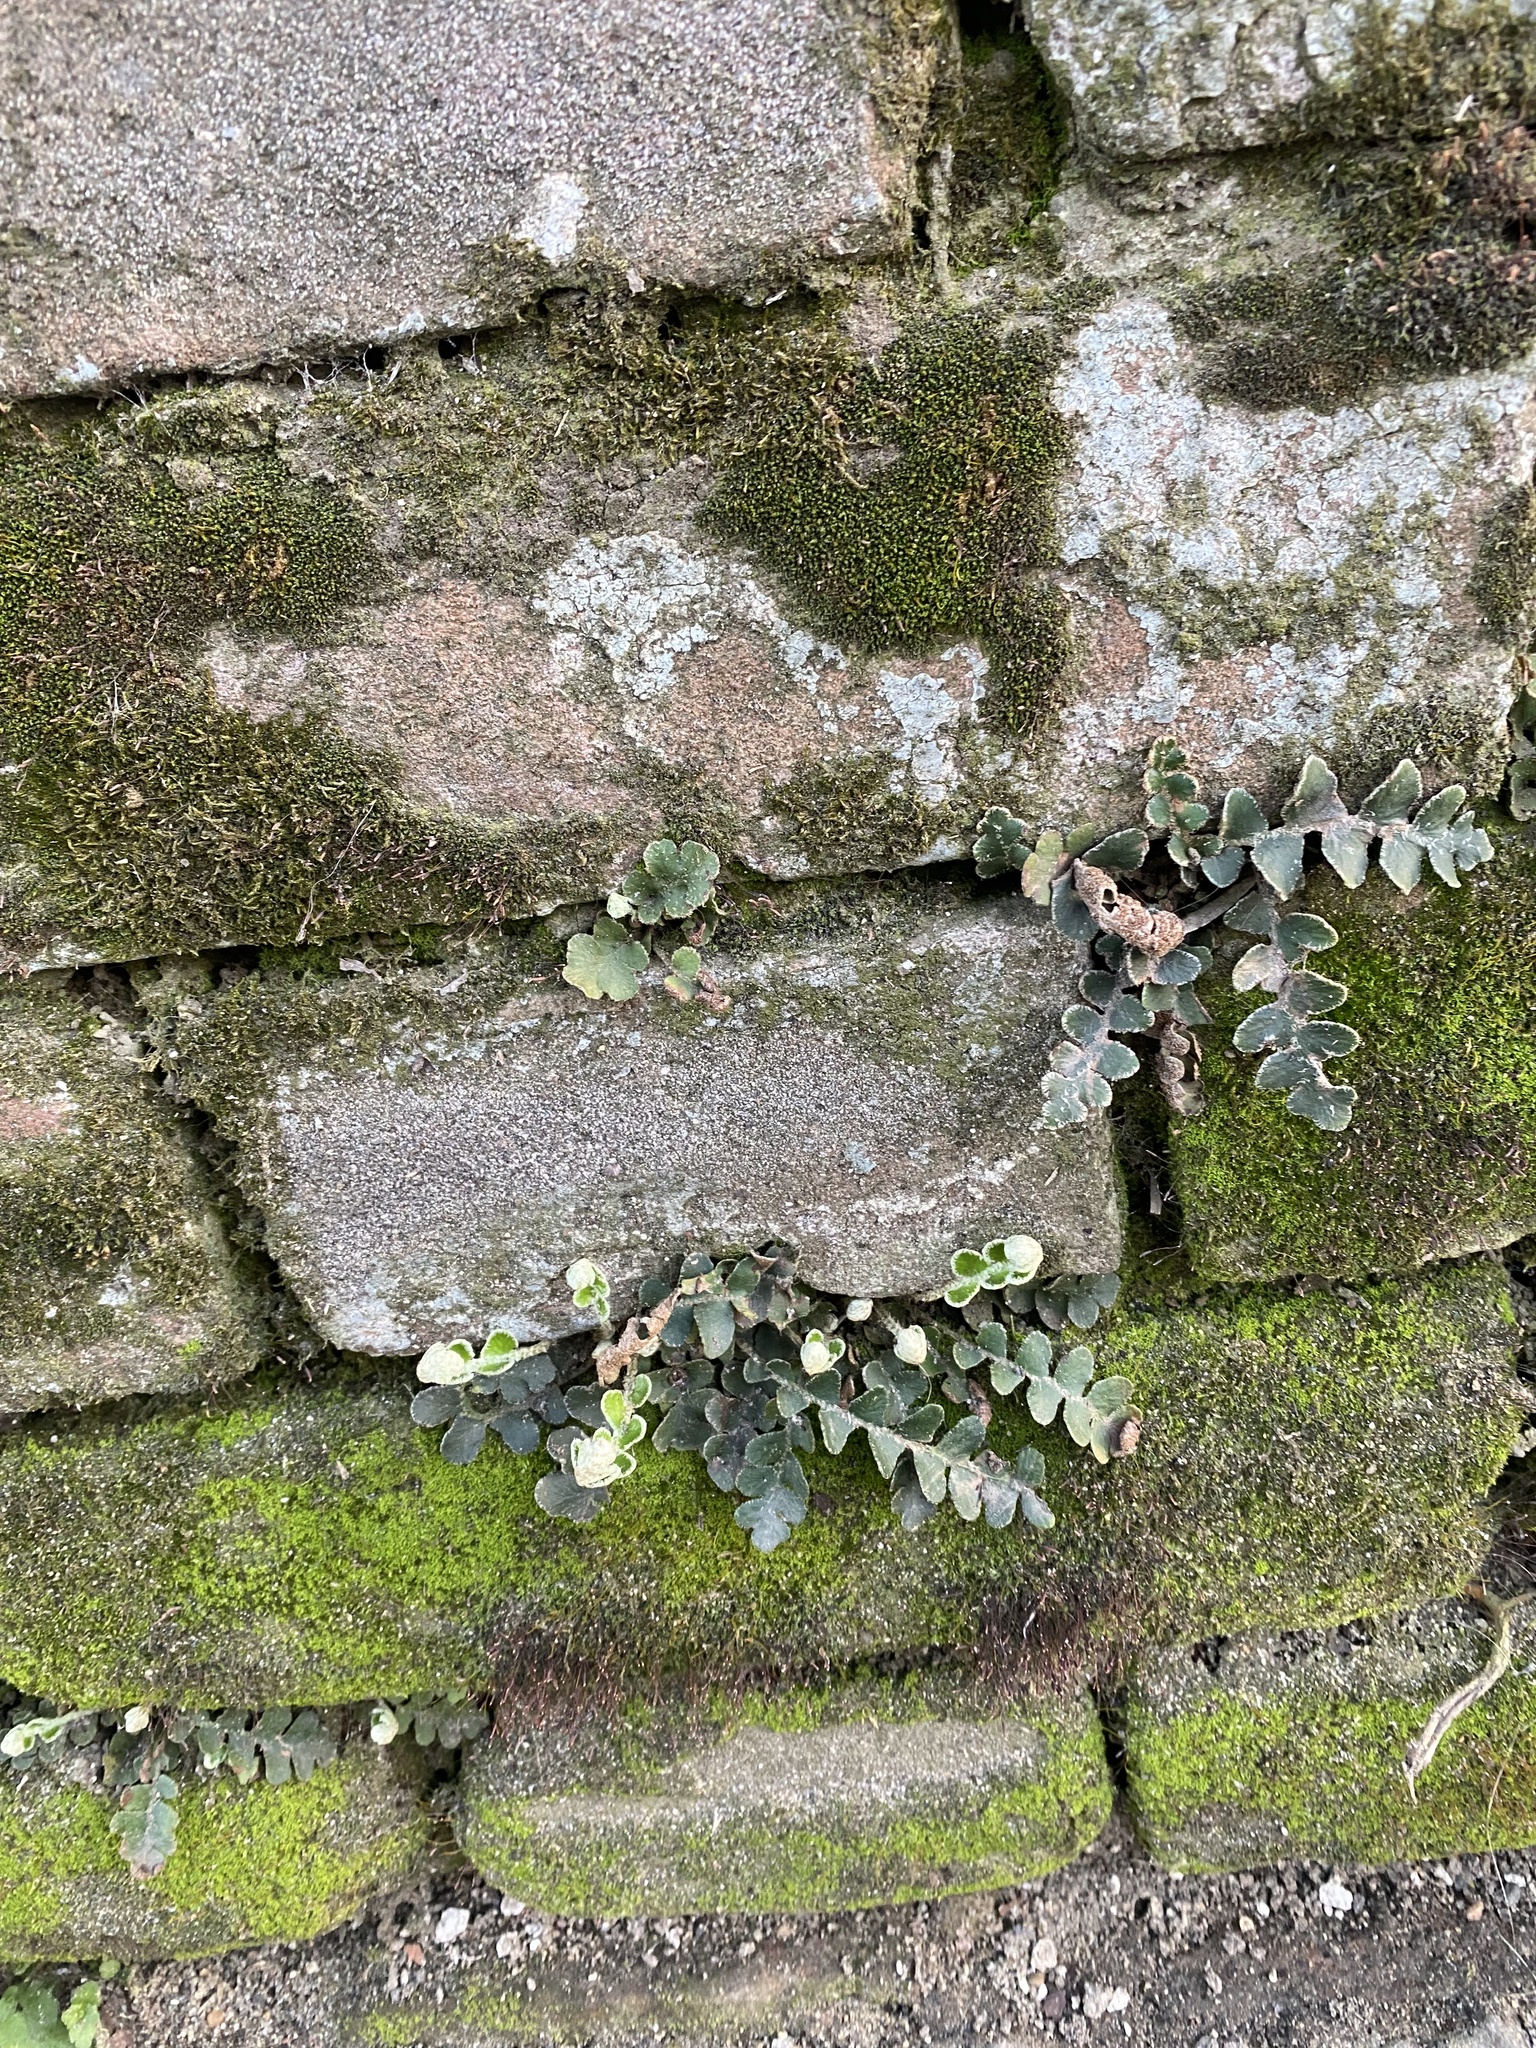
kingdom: Plantae
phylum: Tracheophyta
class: Polypodiopsida
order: Polypodiales
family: Aspleniaceae
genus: Asplenium
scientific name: Asplenium ceterach
